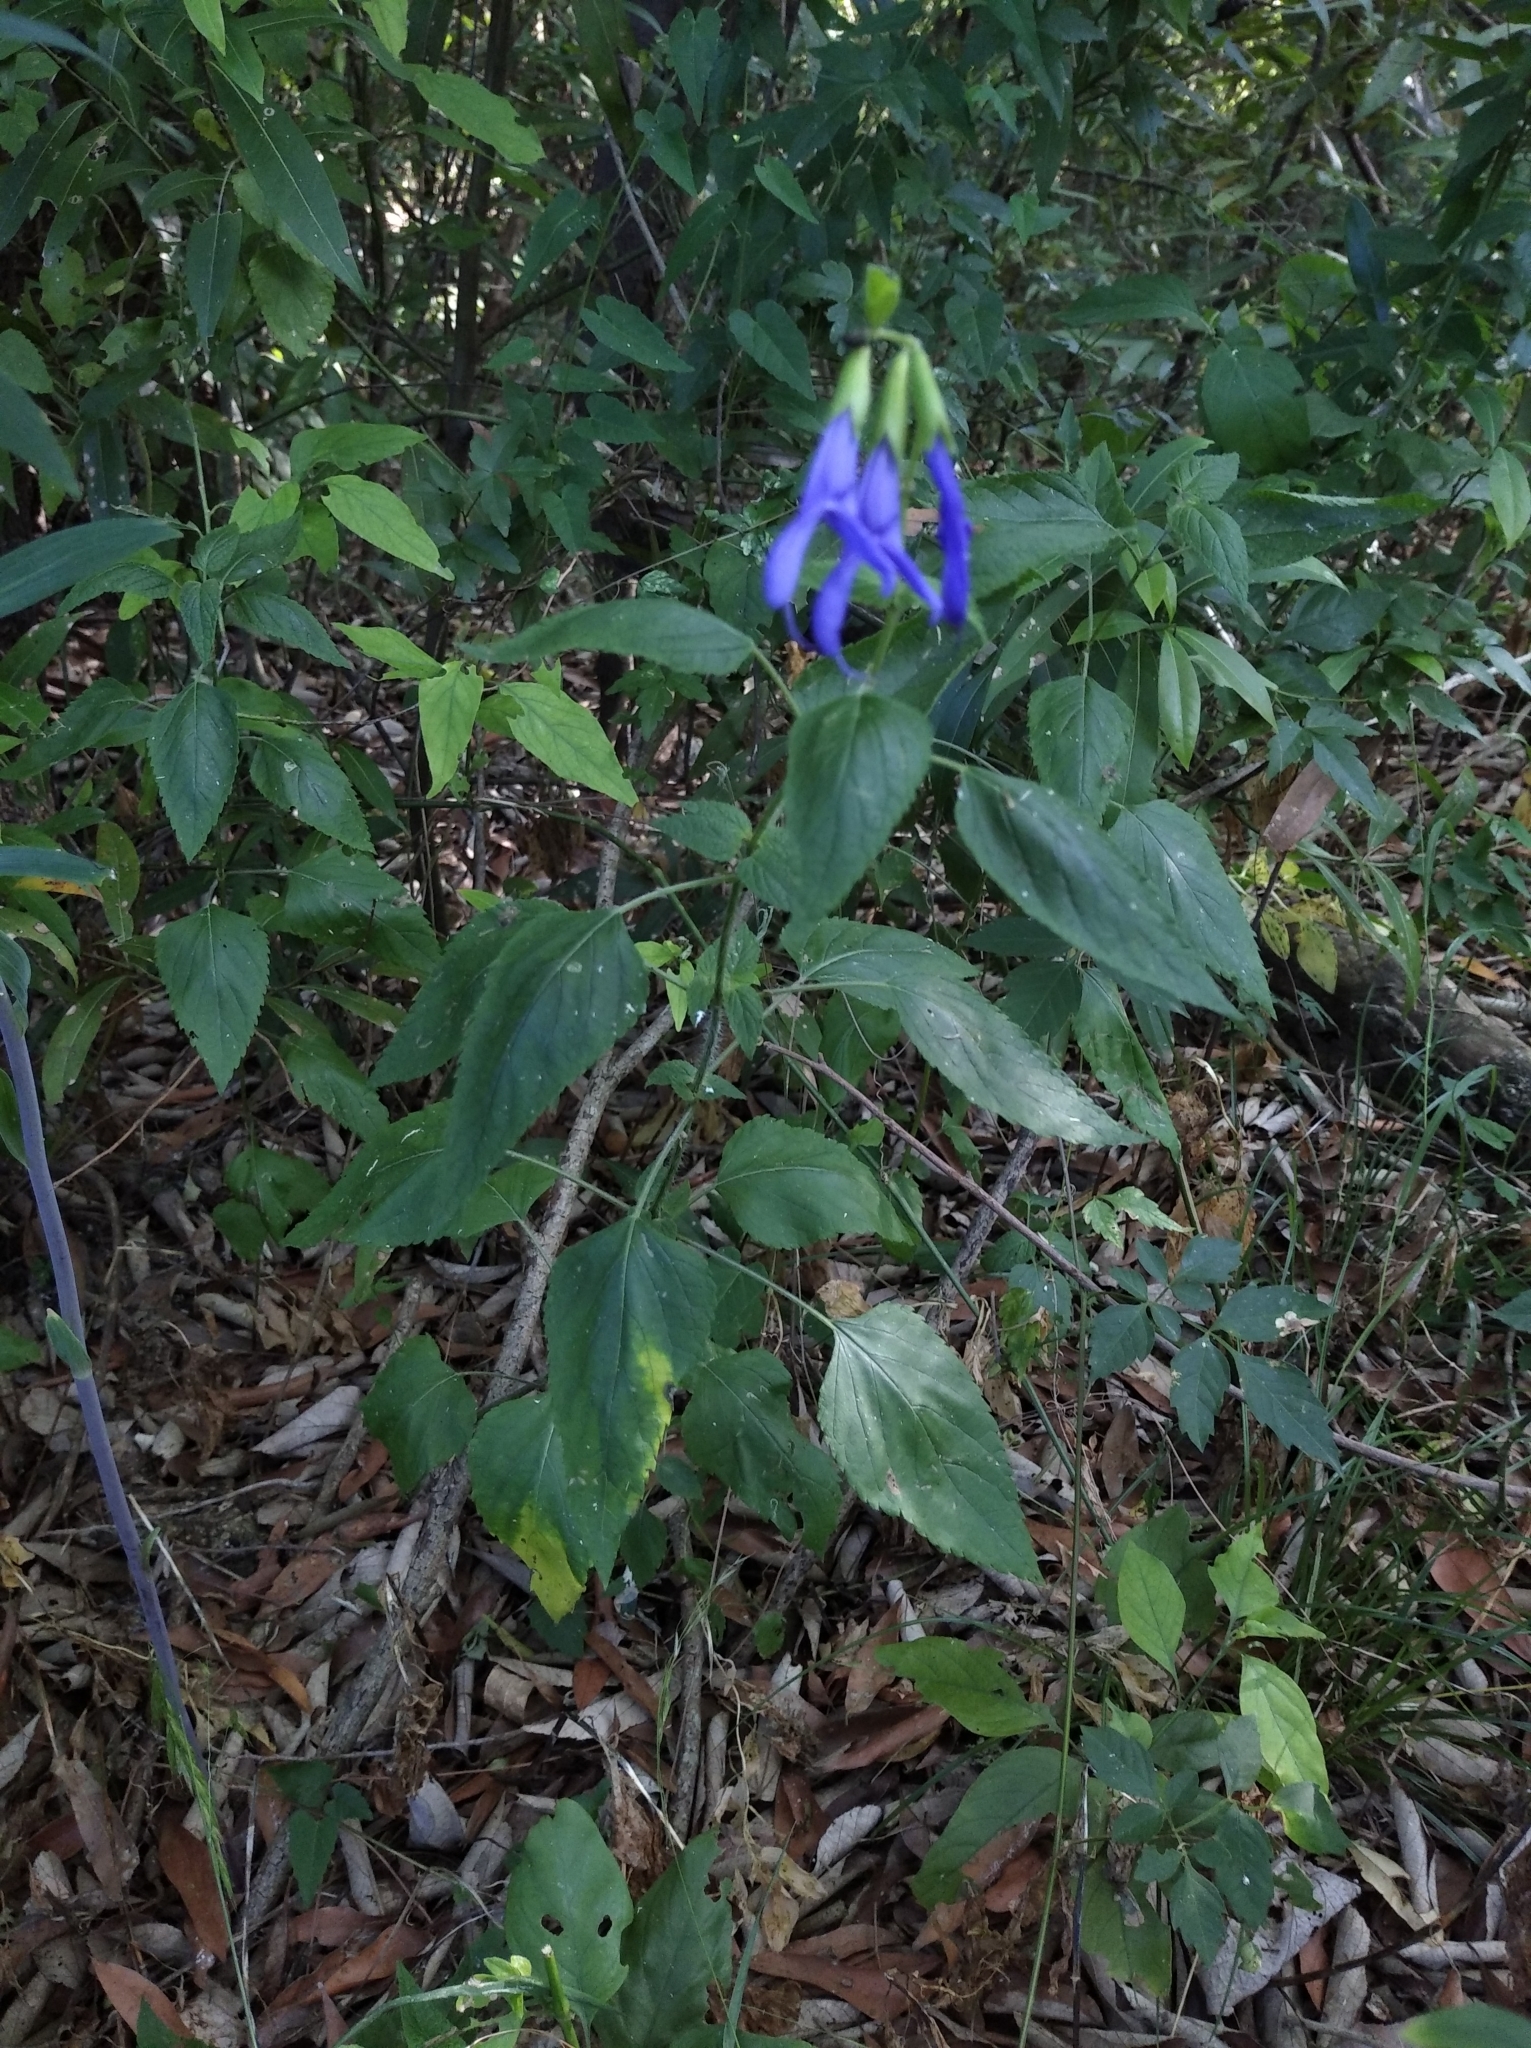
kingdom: Plantae
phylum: Tracheophyta
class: Magnoliopsida
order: Lamiales
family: Lamiaceae
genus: Salvia
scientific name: Salvia guaranitica
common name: Anise-scented sage
